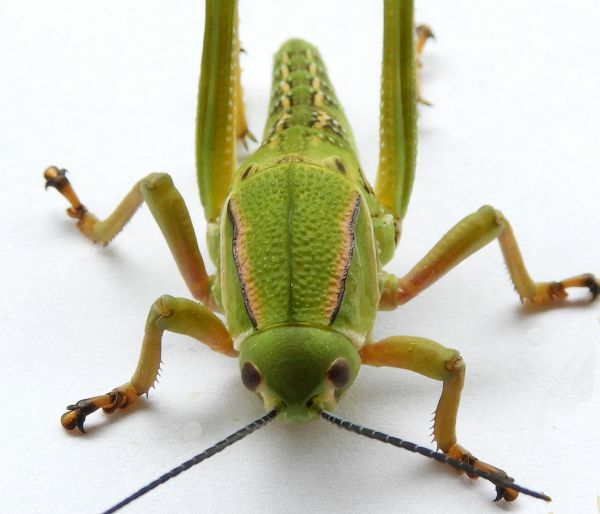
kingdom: Animalia
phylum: Arthropoda
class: Insecta
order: Orthoptera
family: Romaleidae
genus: Brachystola
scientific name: Brachystola magna
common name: Plains lubber grasshopper
